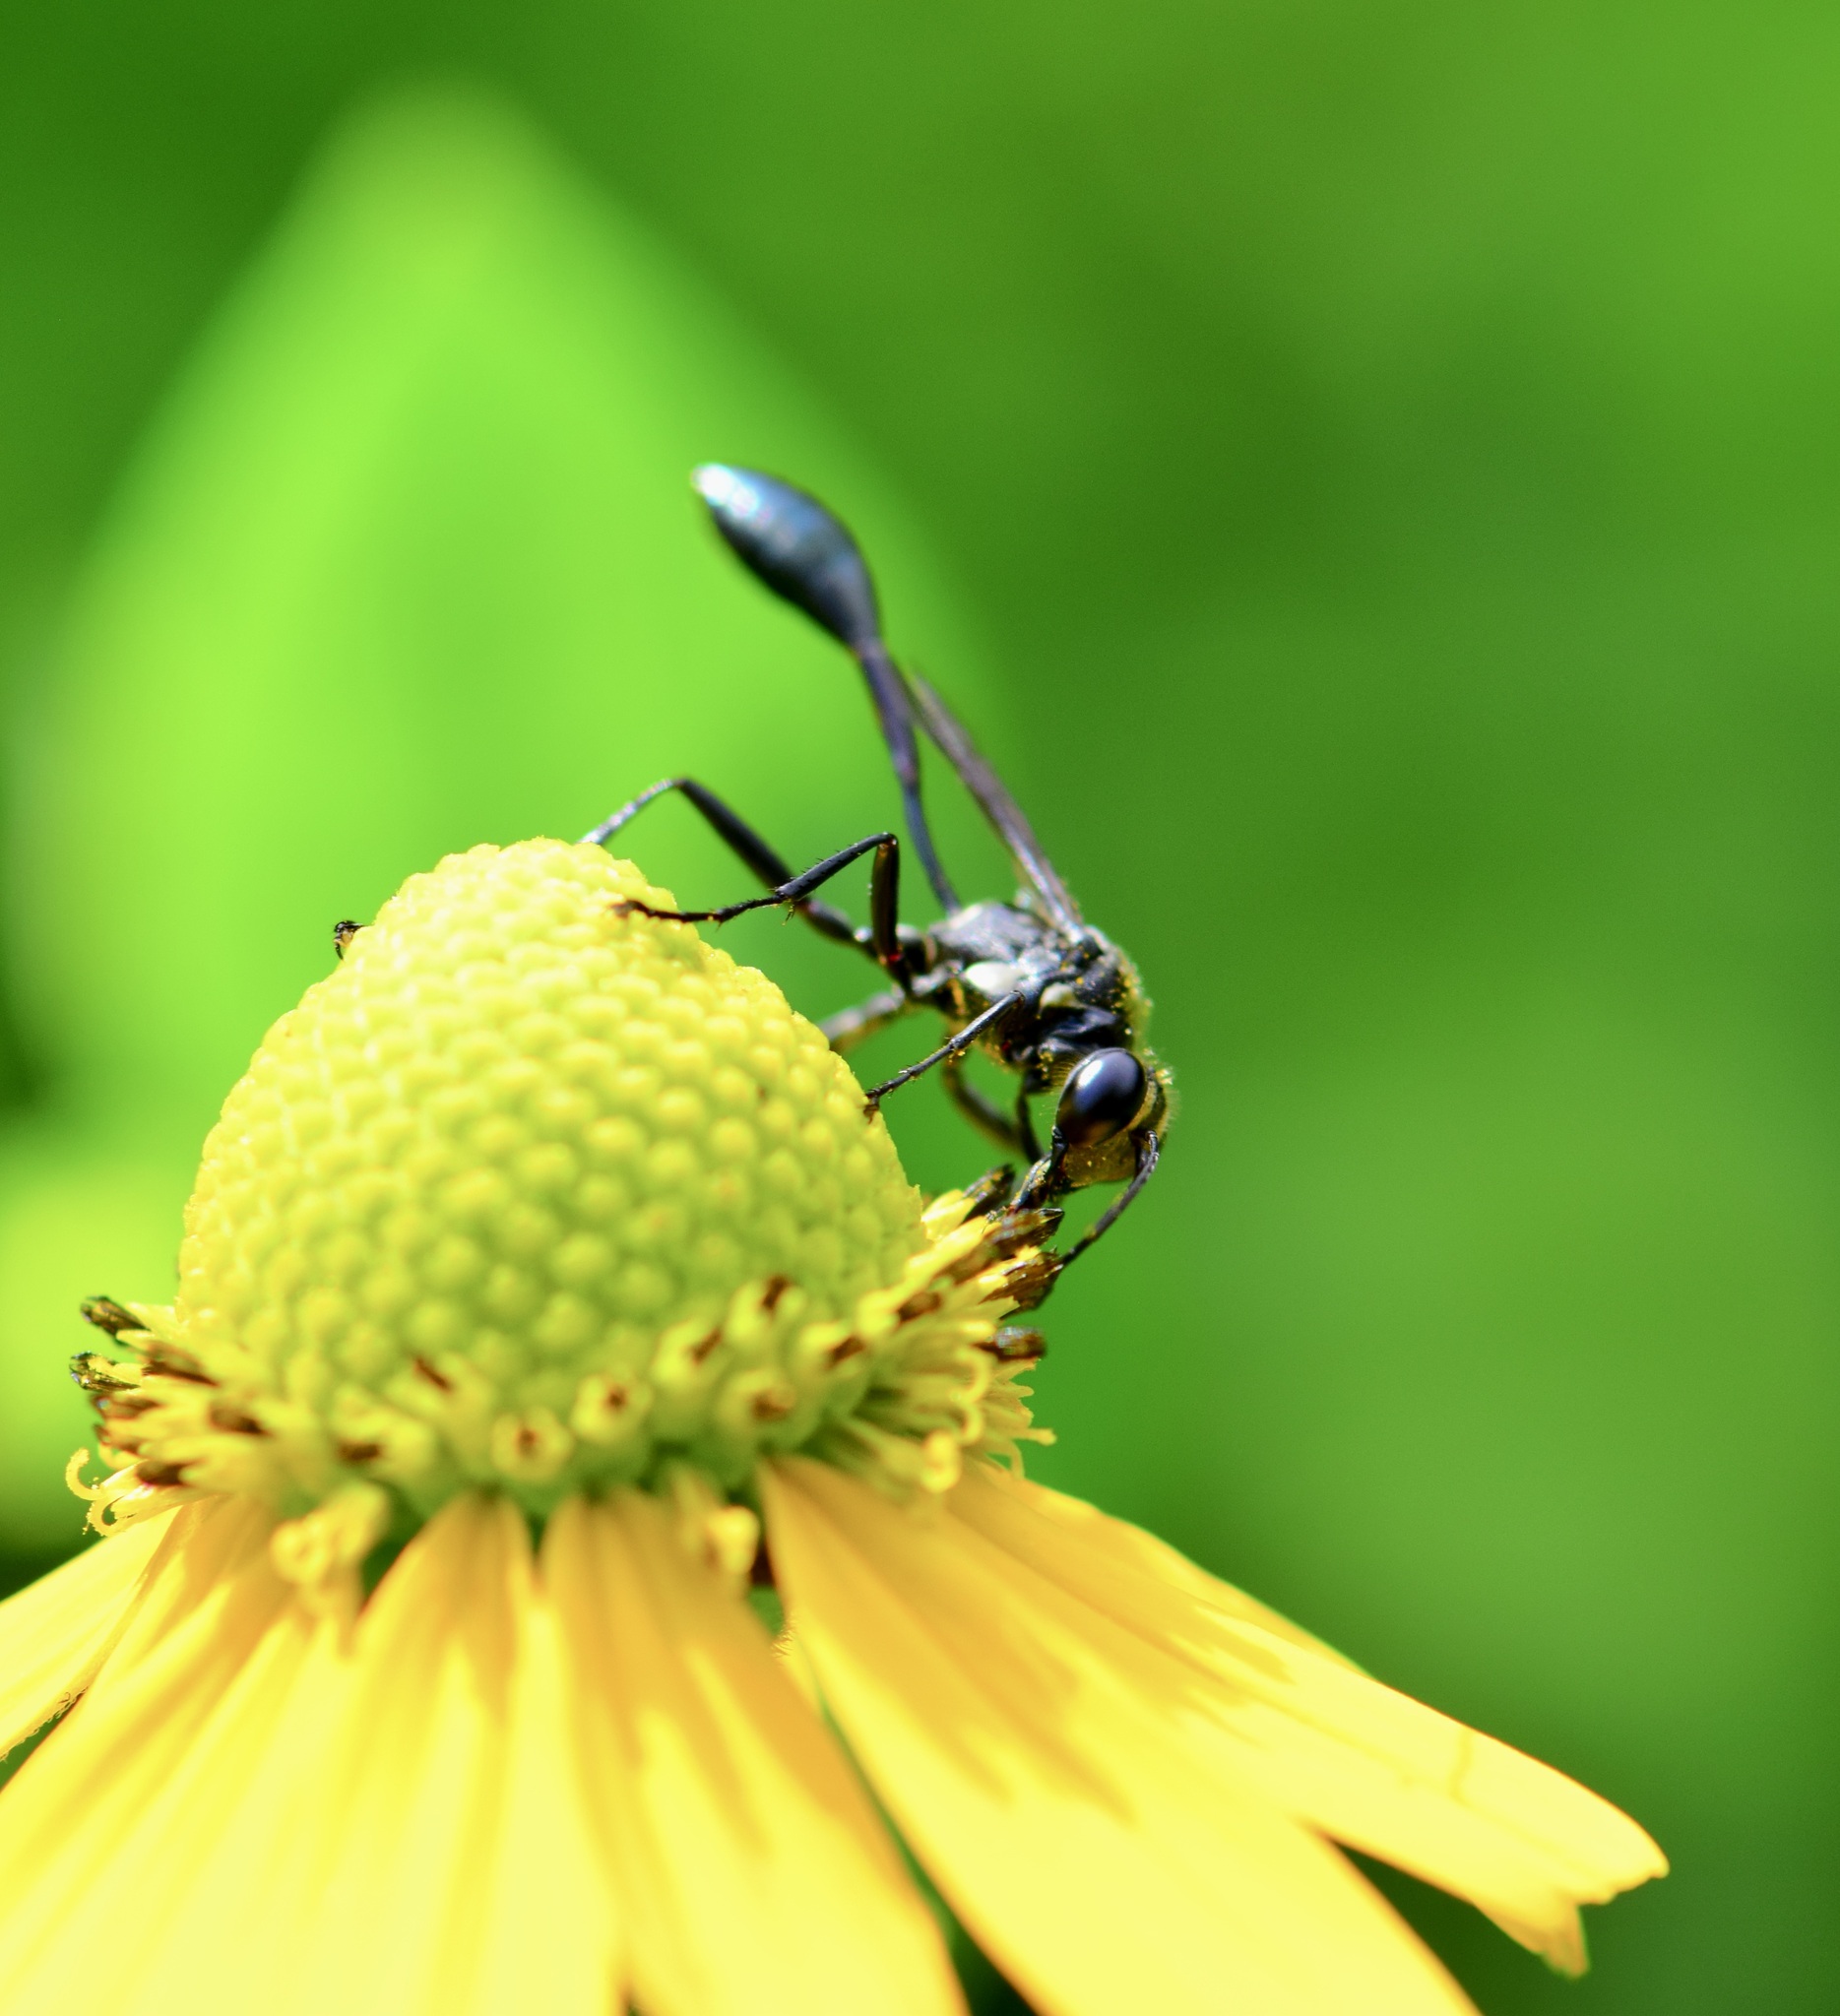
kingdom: Animalia
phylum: Arthropoda
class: Insecta
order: Hymenoptera
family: Sphecidae
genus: Eremnophila
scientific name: Eremnophila aureonotata
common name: Gold-marked thread-waisted wasp
